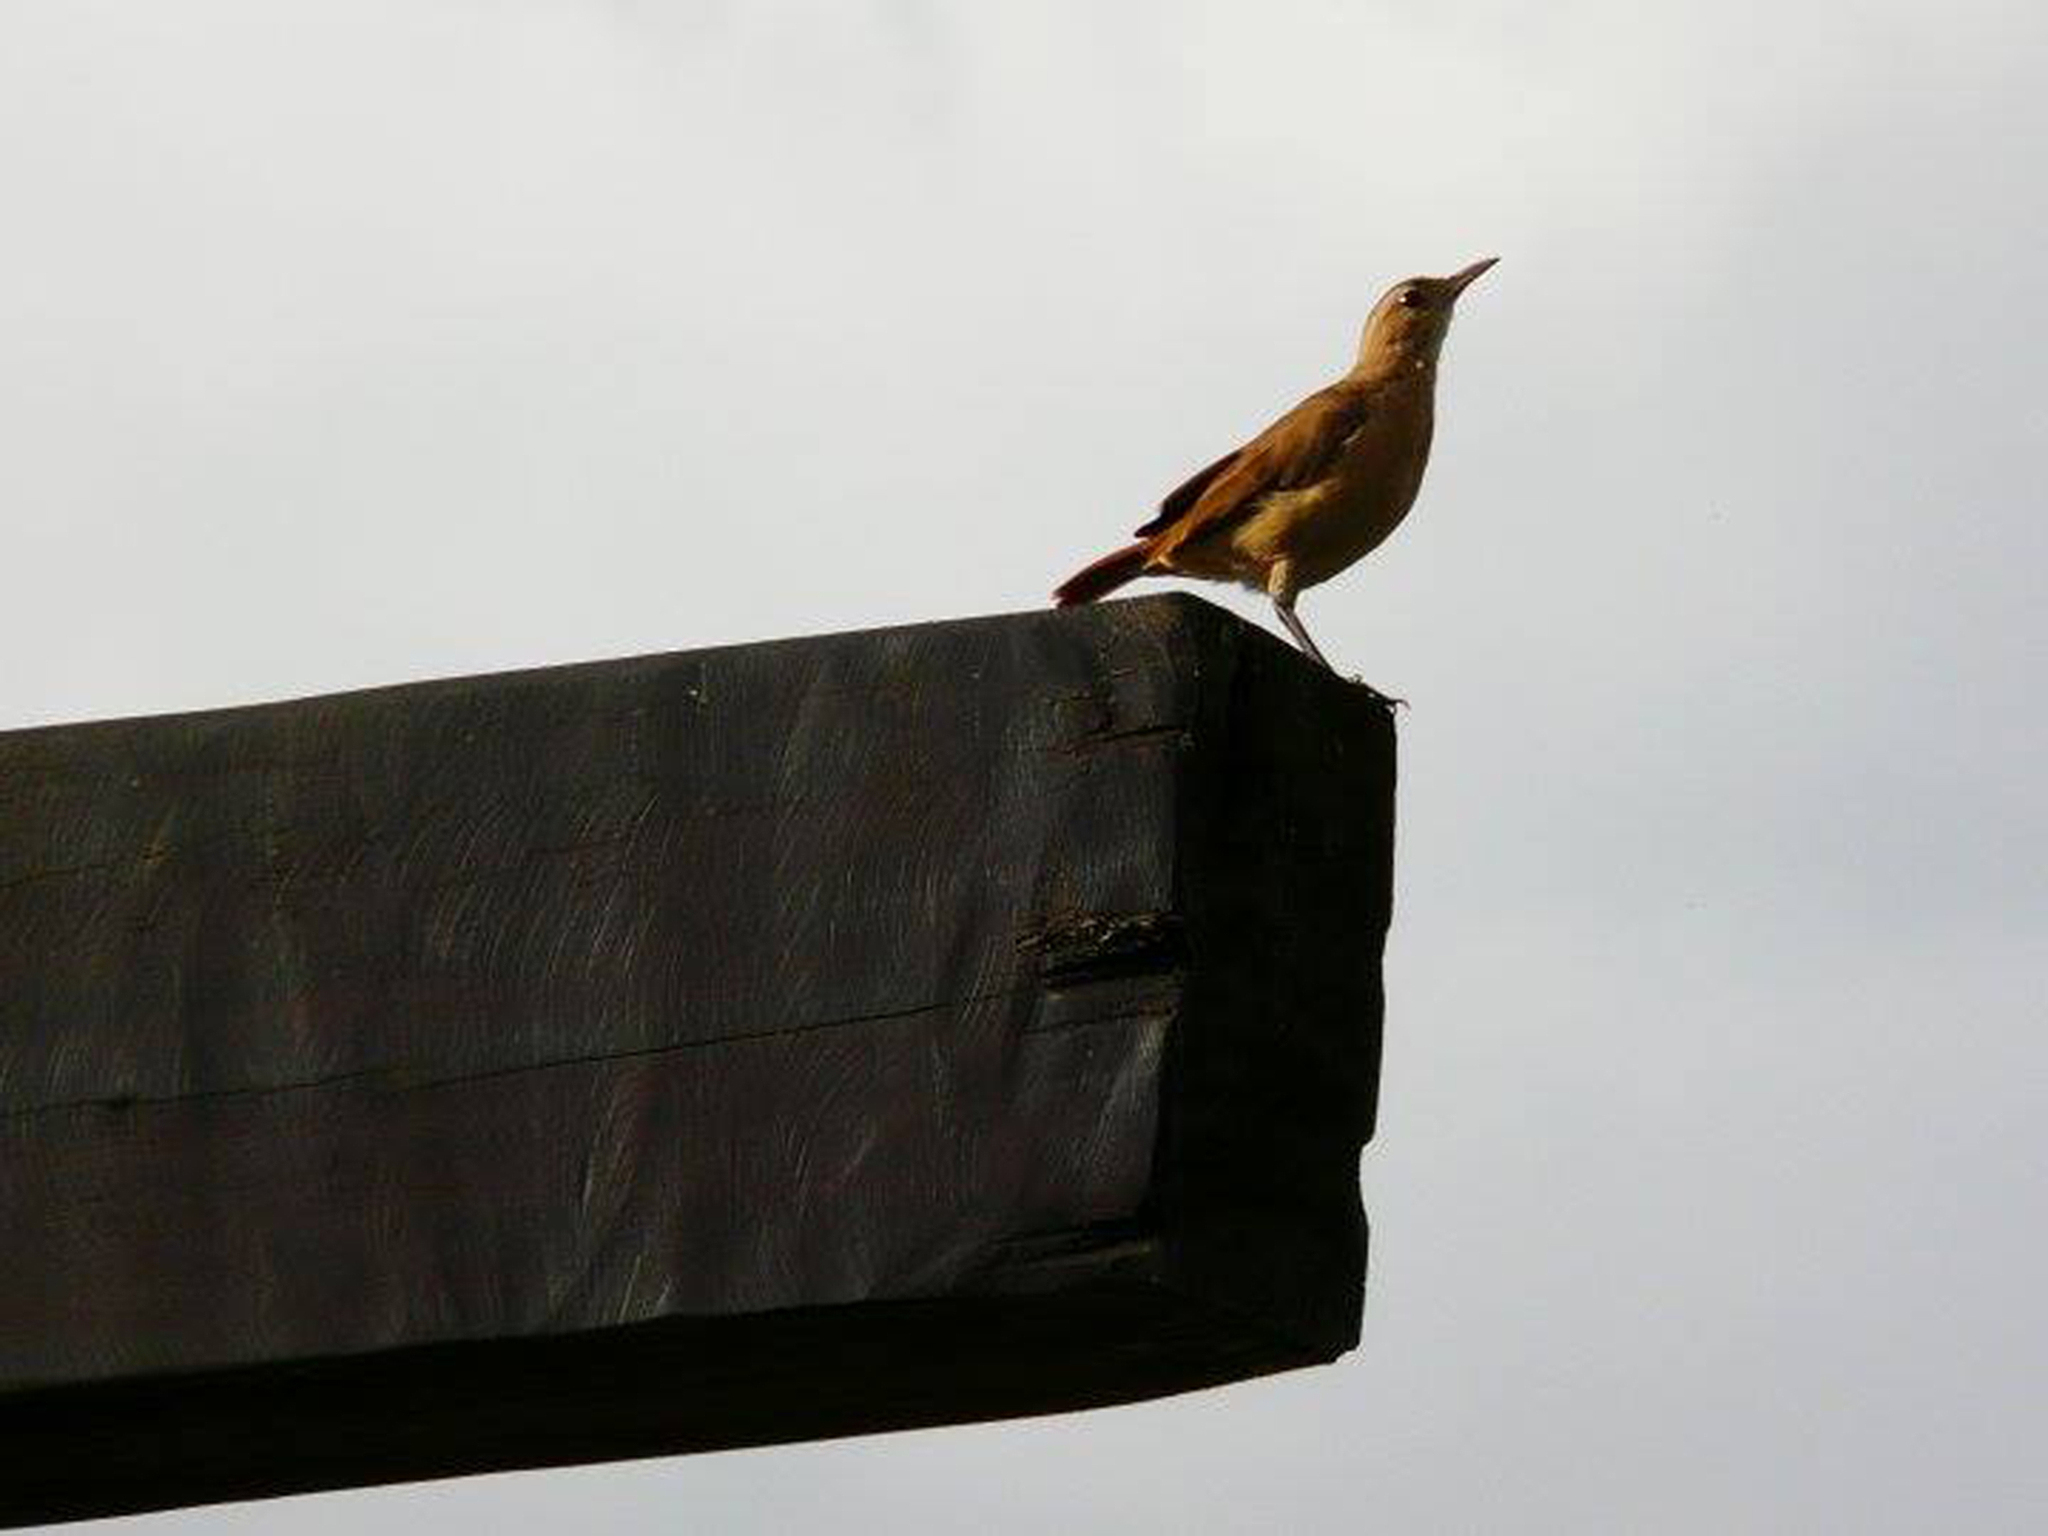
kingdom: Animalia
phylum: Chordata
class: Aves
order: Passeriformes
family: Furnariidae
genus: Furnarius
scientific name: Furnarius rufus
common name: Rufous hornero
